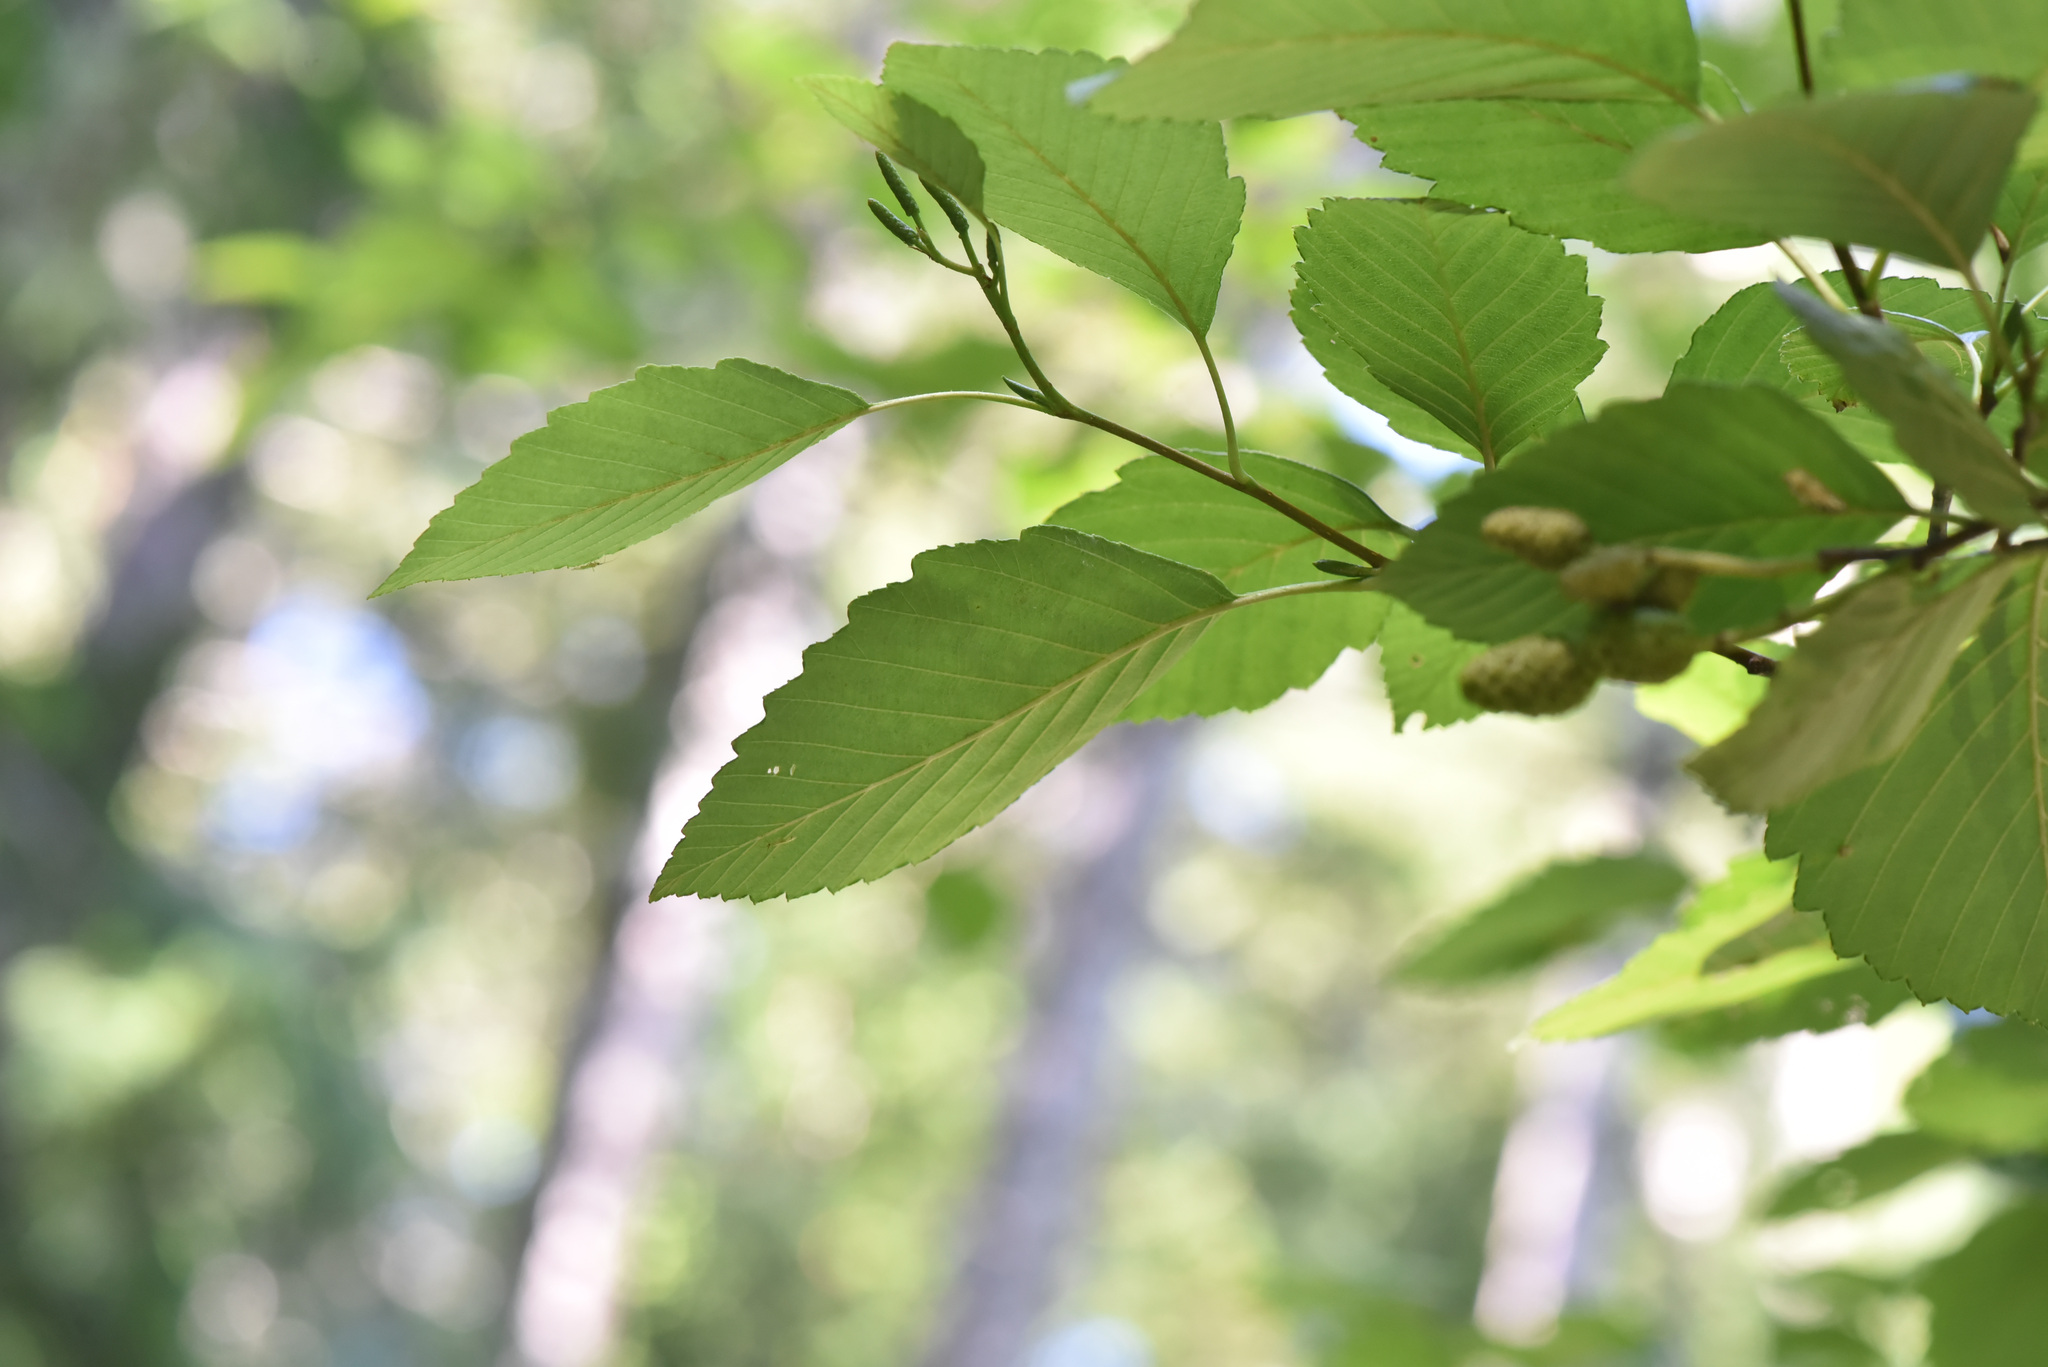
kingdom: Plantae
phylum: Tracheophyta
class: Magnoliopsida
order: Fagales
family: Betulaceae
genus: Alnus
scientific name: Alnus rubra
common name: Red alder
